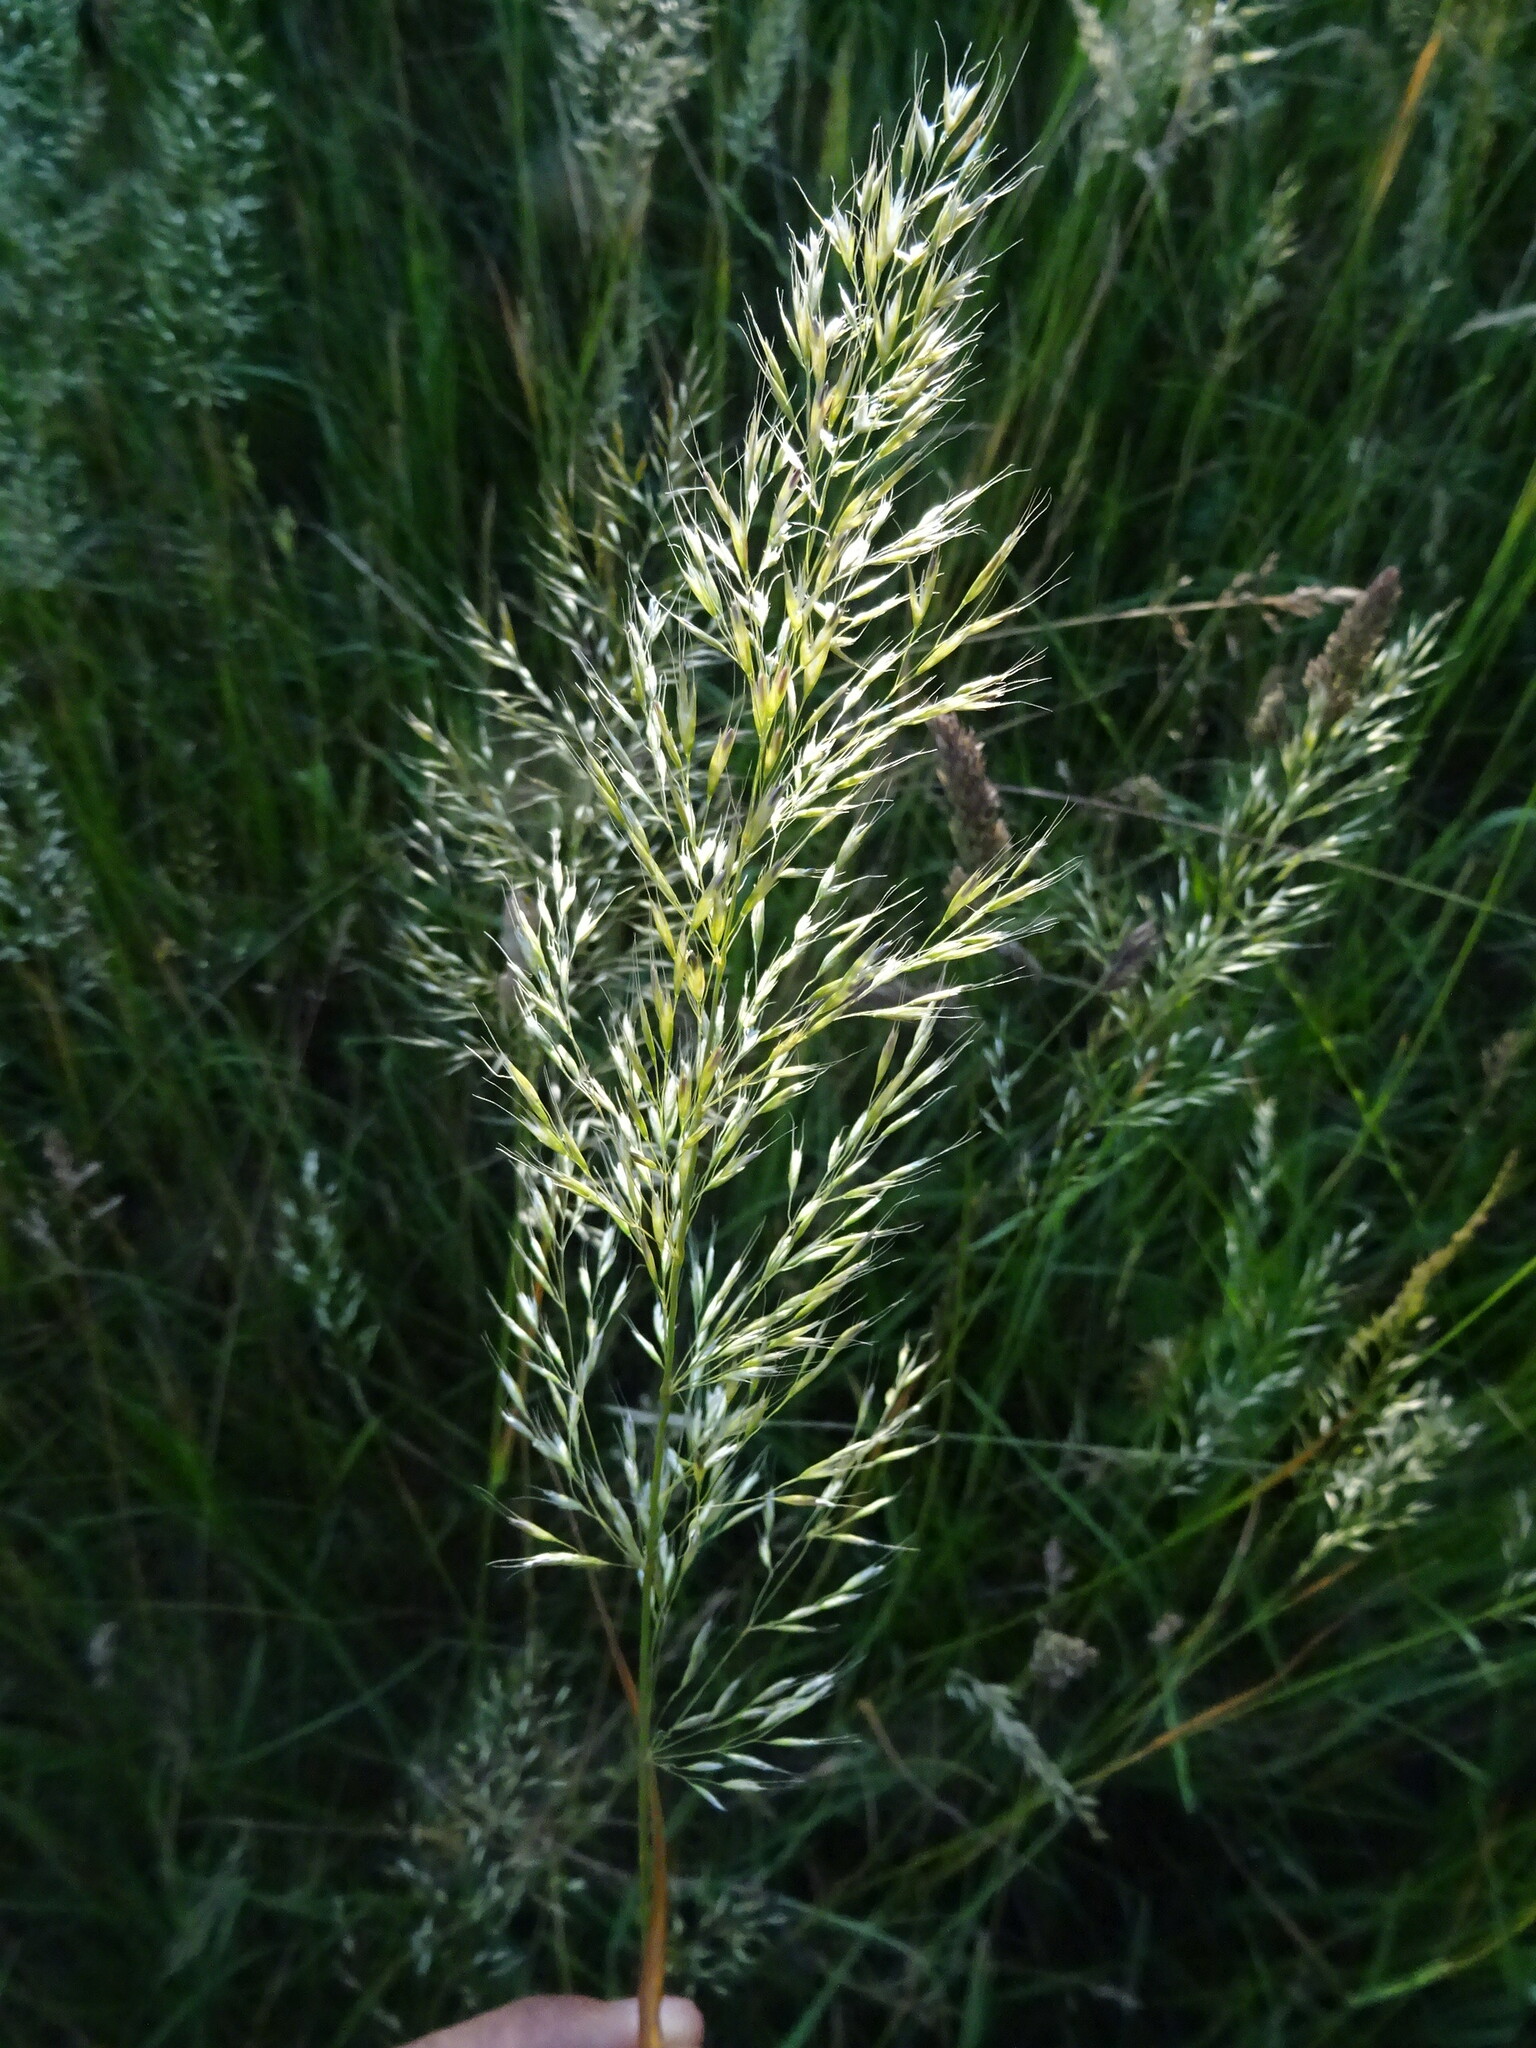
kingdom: Plantae
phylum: Tracheophyta
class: Liliopsida
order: Poales
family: Poaceae
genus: Trisetum
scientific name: Trisetum flavescens
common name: Yellow oat-grass
